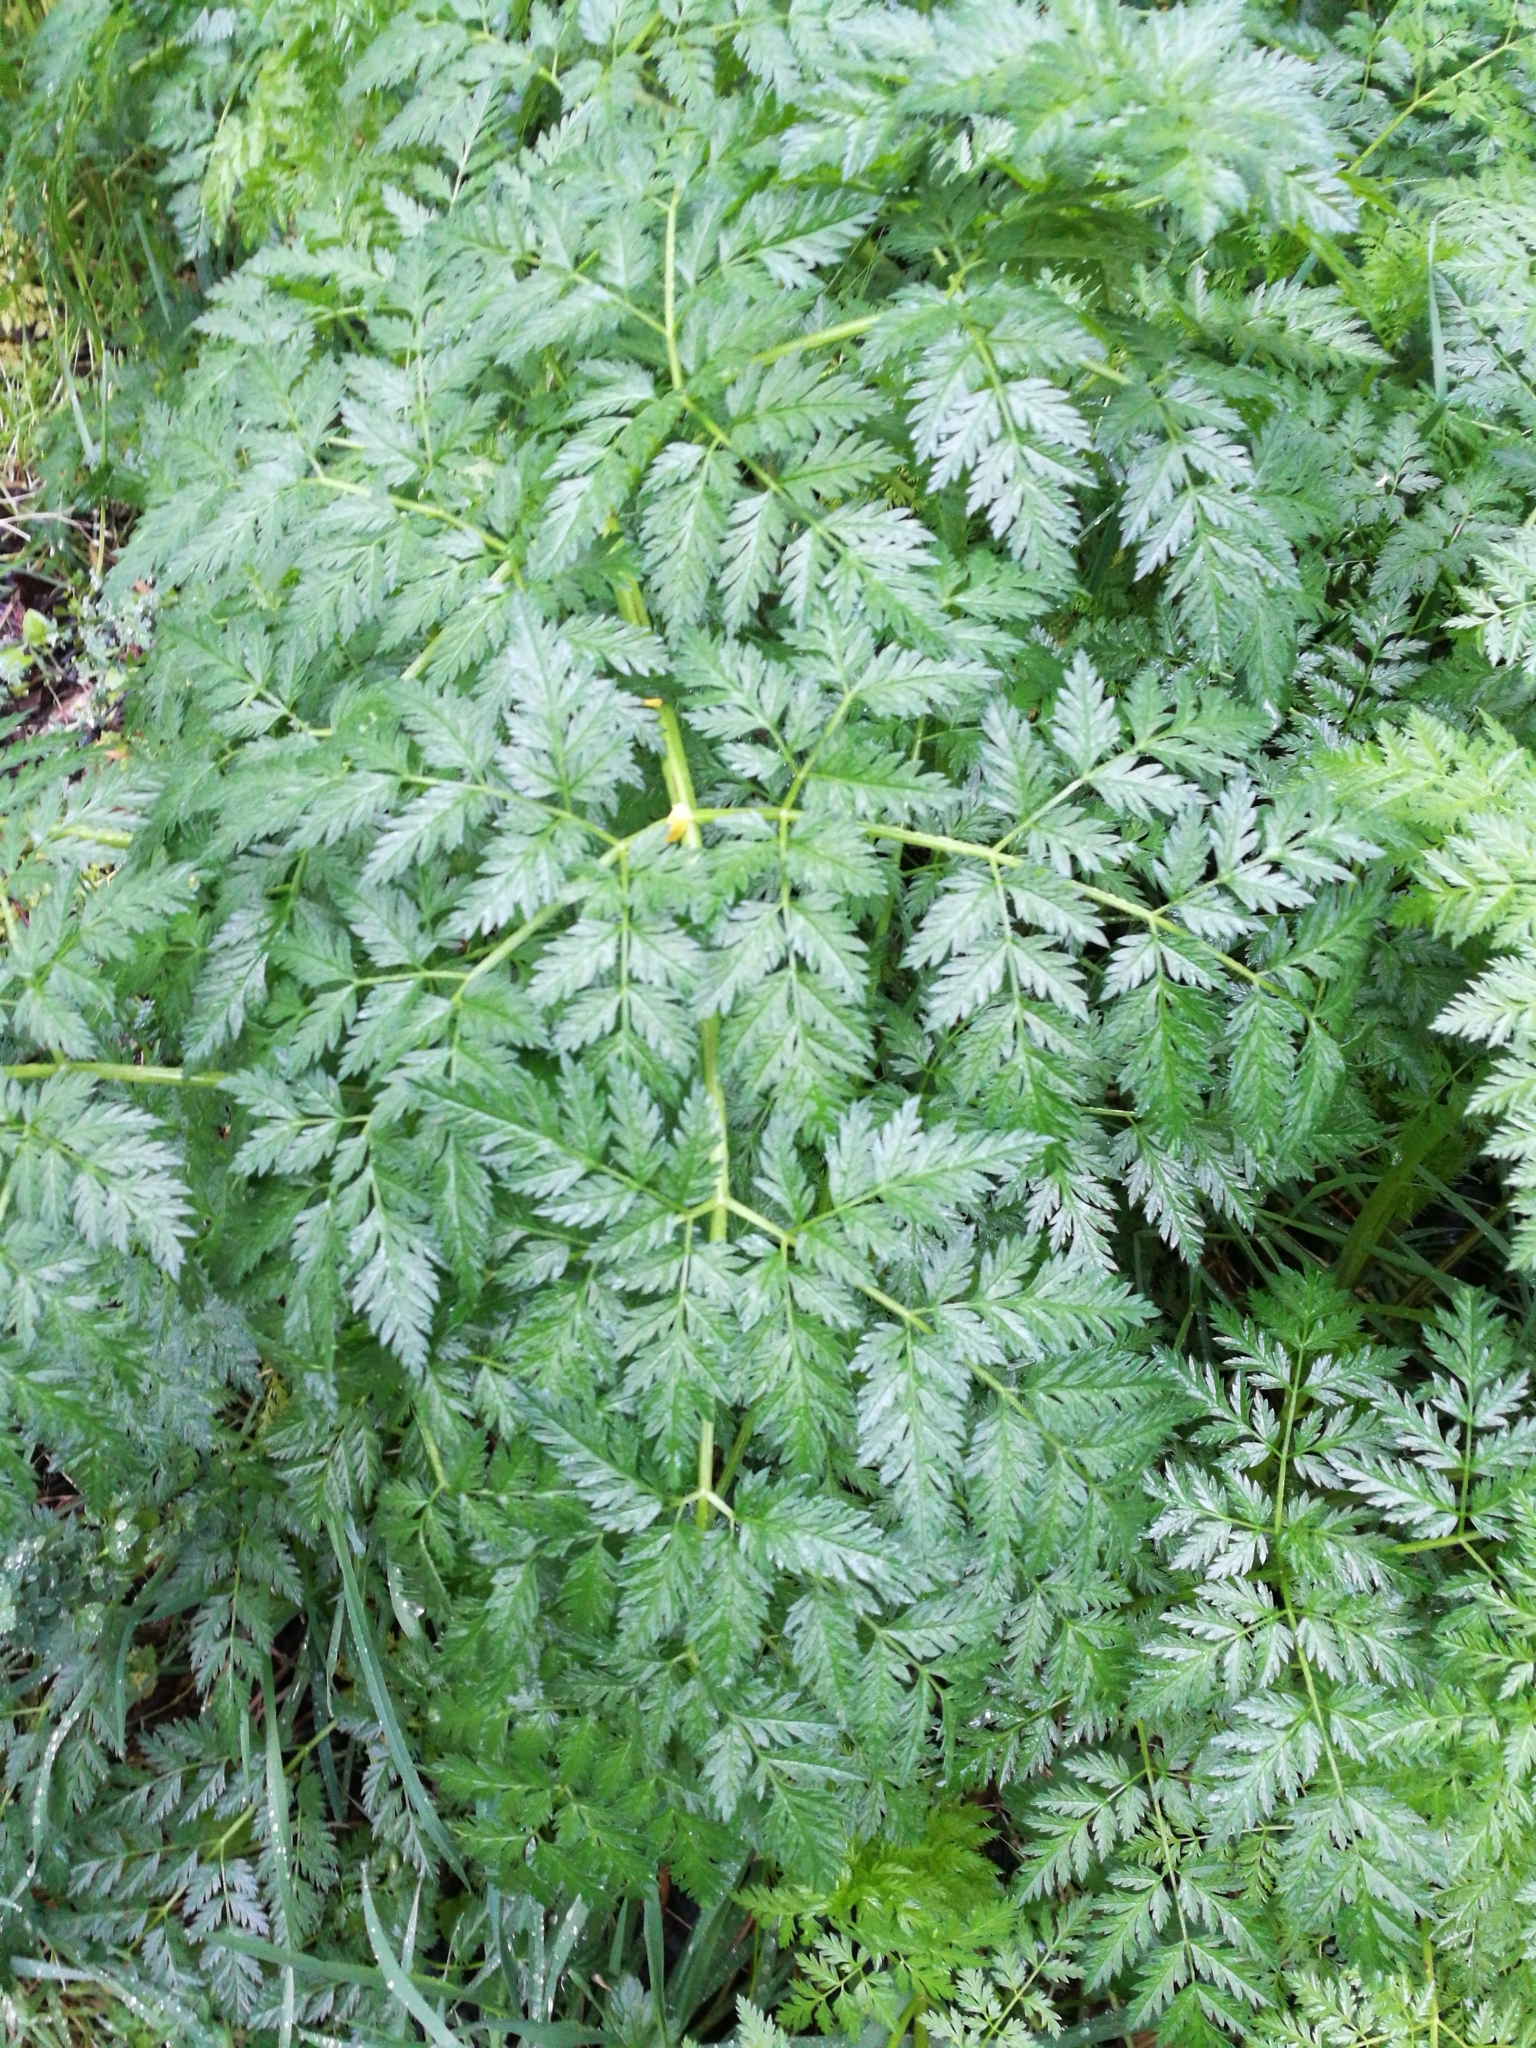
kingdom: Plantae
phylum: Tracheophyta
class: Magnoliopsida
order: Apiales
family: Apiaceae
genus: Conium
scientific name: Conium maculatum
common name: Hemlock
